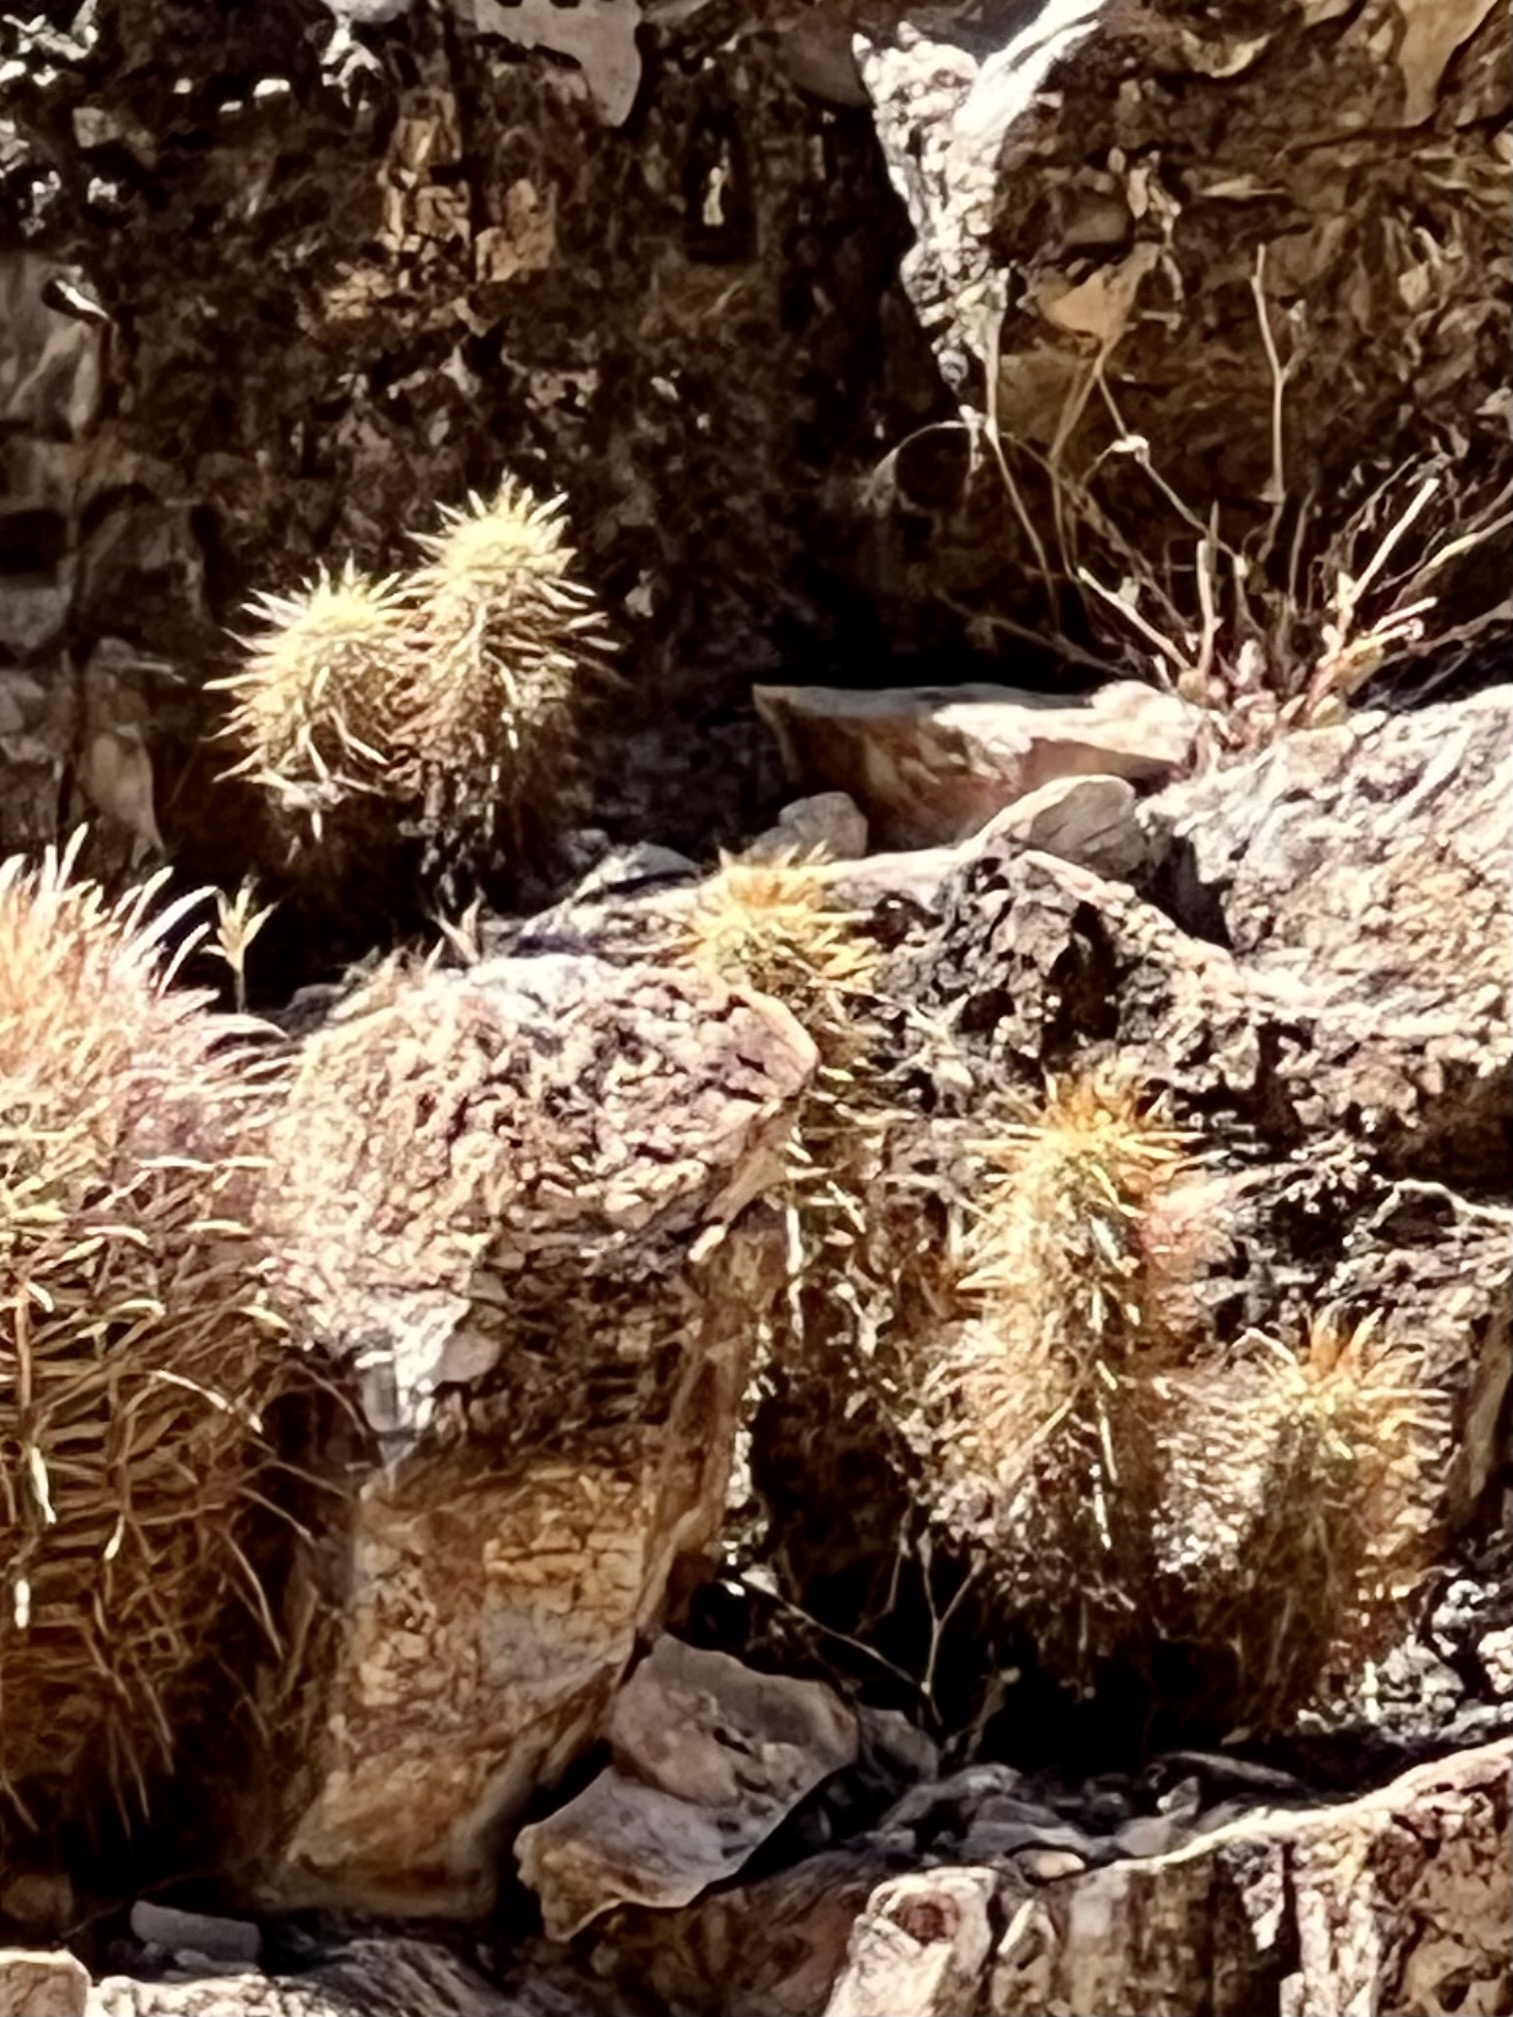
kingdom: Plantae
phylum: Tracheophyta
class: Magnoliopsida
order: Caryophyllales
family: Cactaceae
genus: Echinocereus
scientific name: Echinocereus engelmannii
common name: Engelmann's hedgehog cactus
